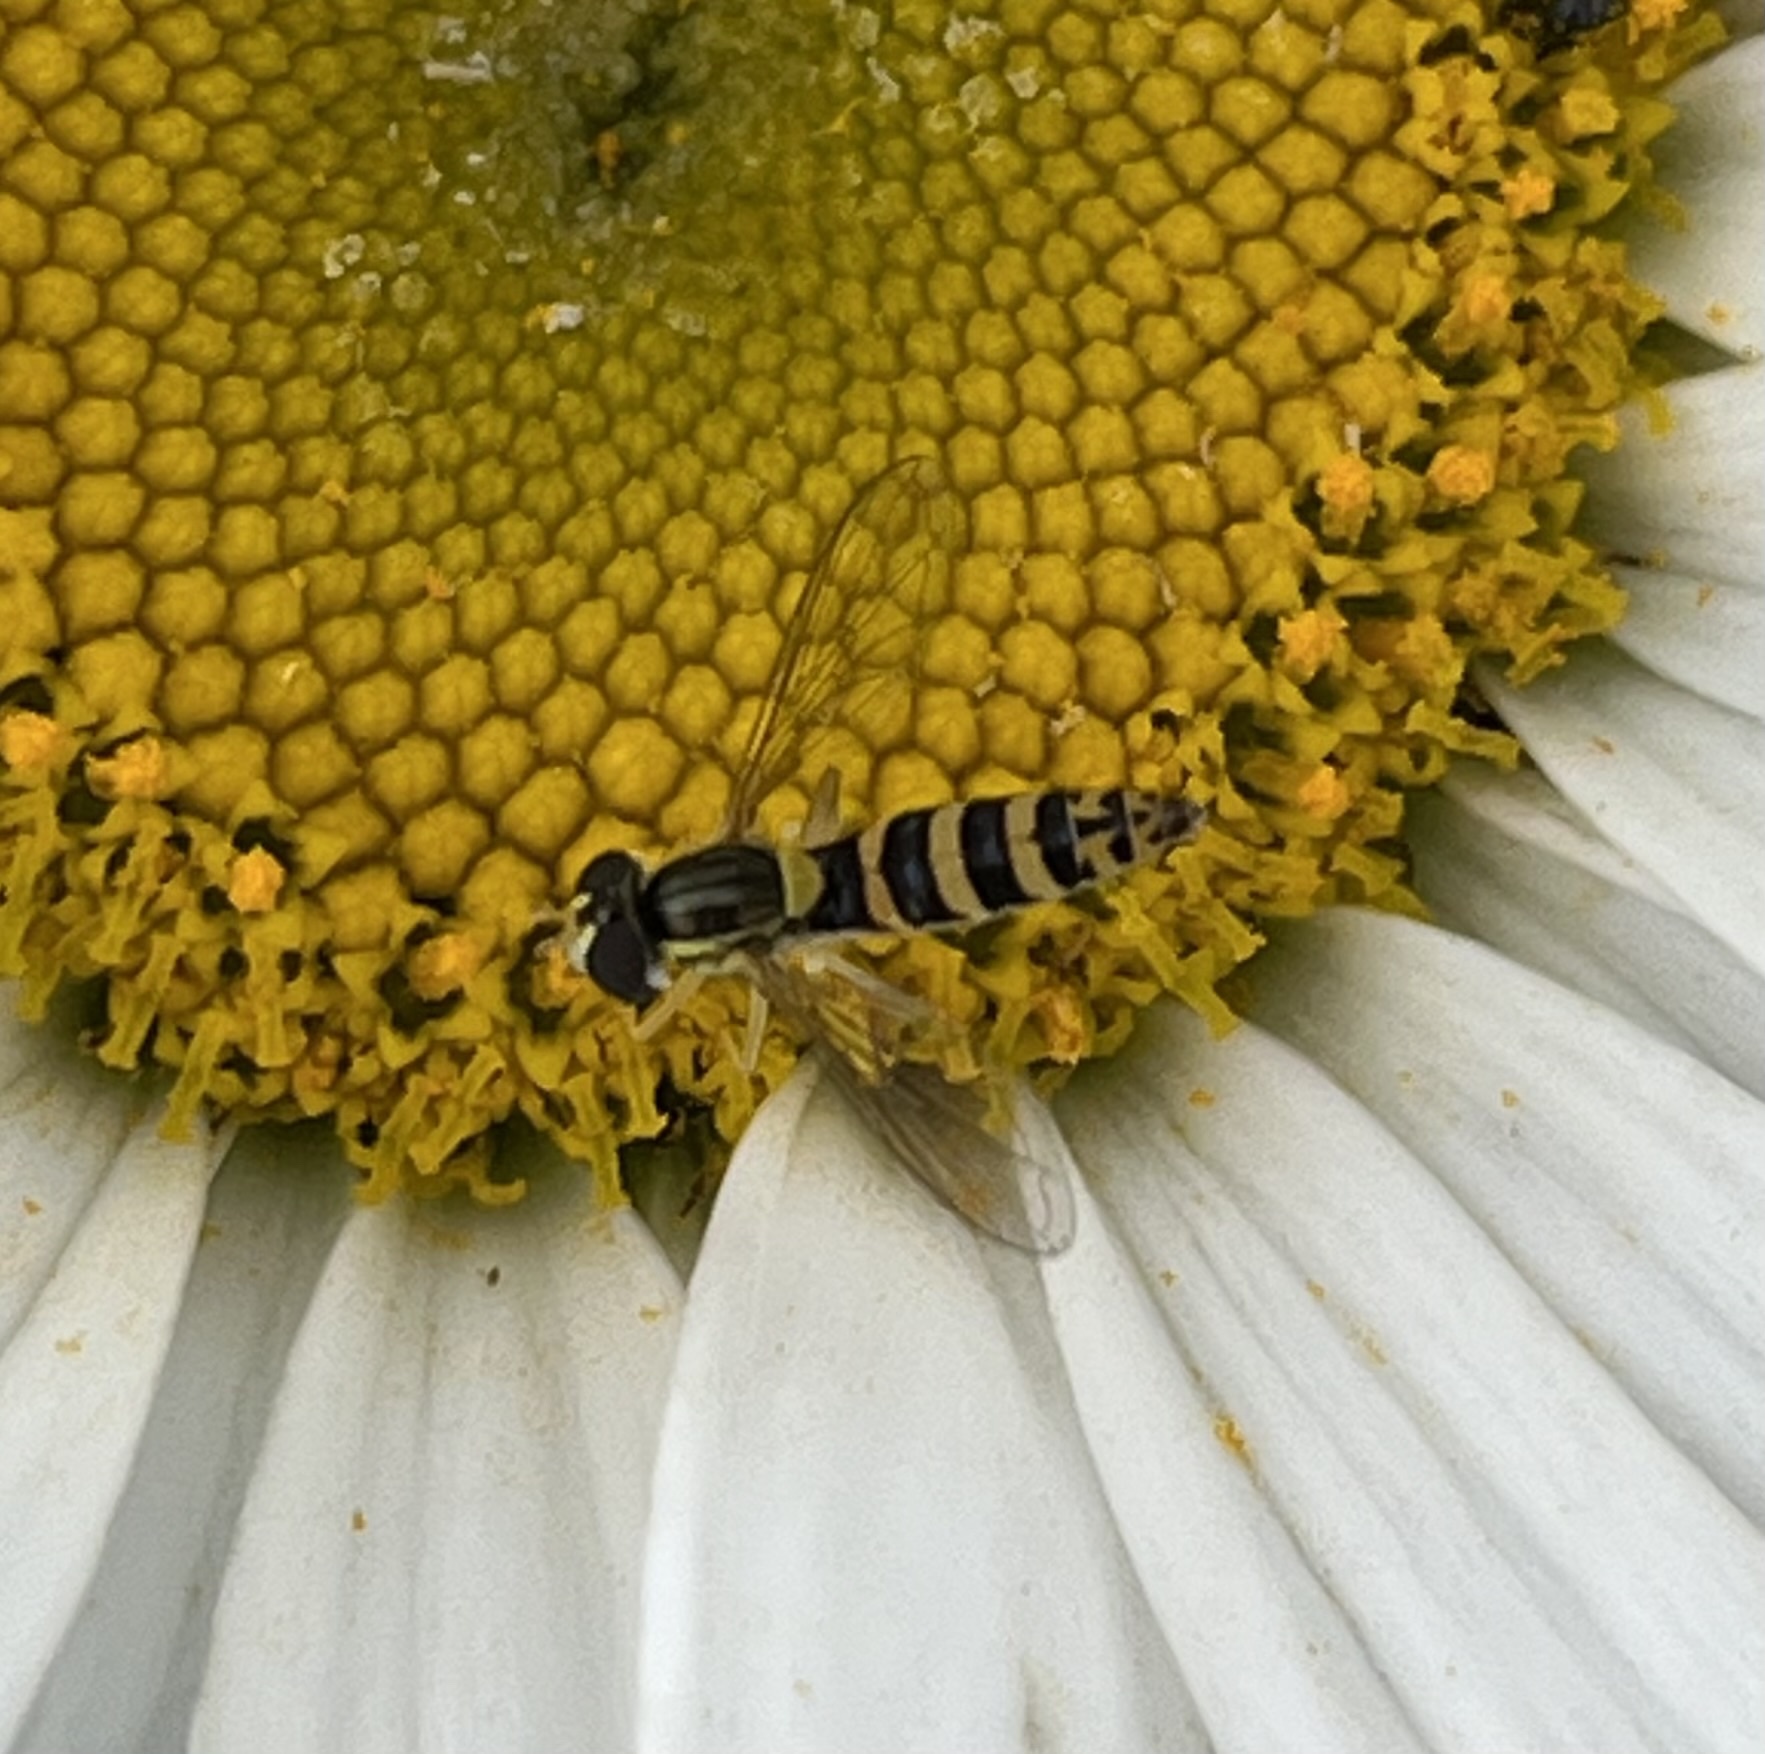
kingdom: Animalia
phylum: Arthropoda
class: Insecta
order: Diptera
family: Syrphidae
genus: Sphaerophoria
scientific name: Sphaerophoria
